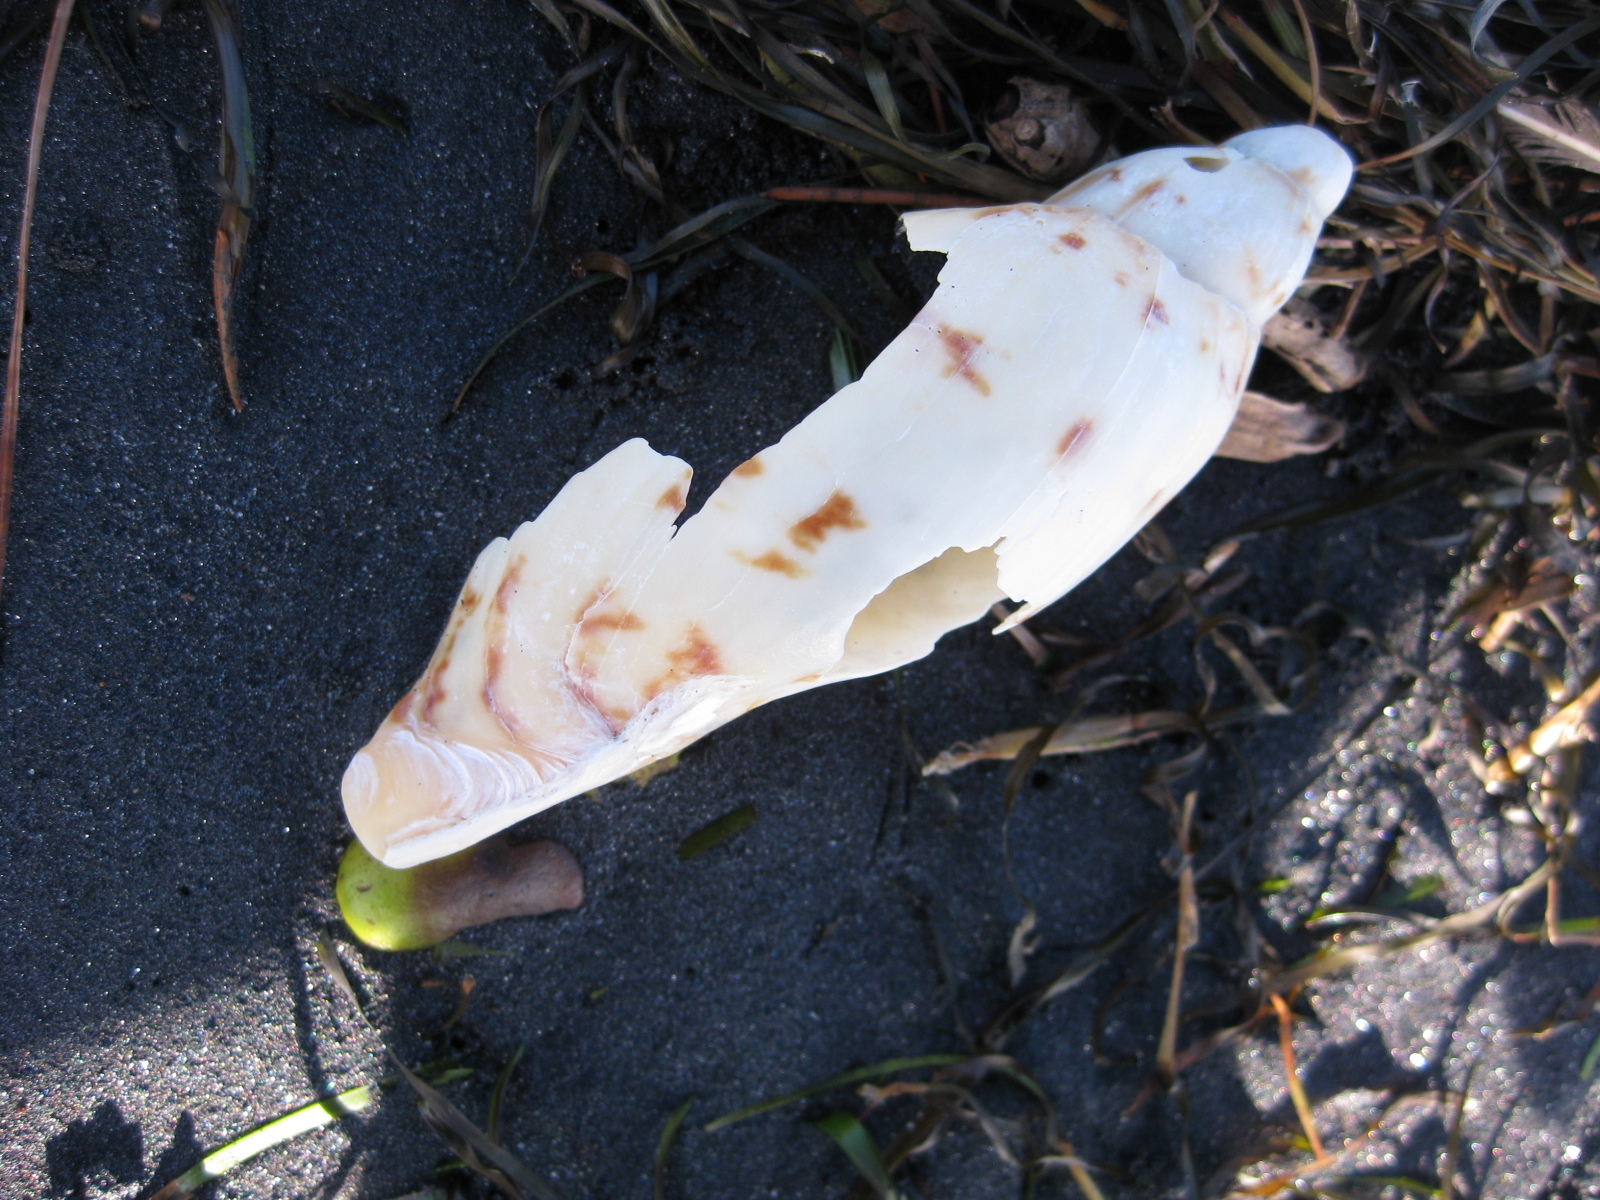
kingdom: Animalia
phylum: Mollusca
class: Gastropoda
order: Neogastropoda
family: Volutidae
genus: Alcithoe
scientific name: Alcithoe arabica
